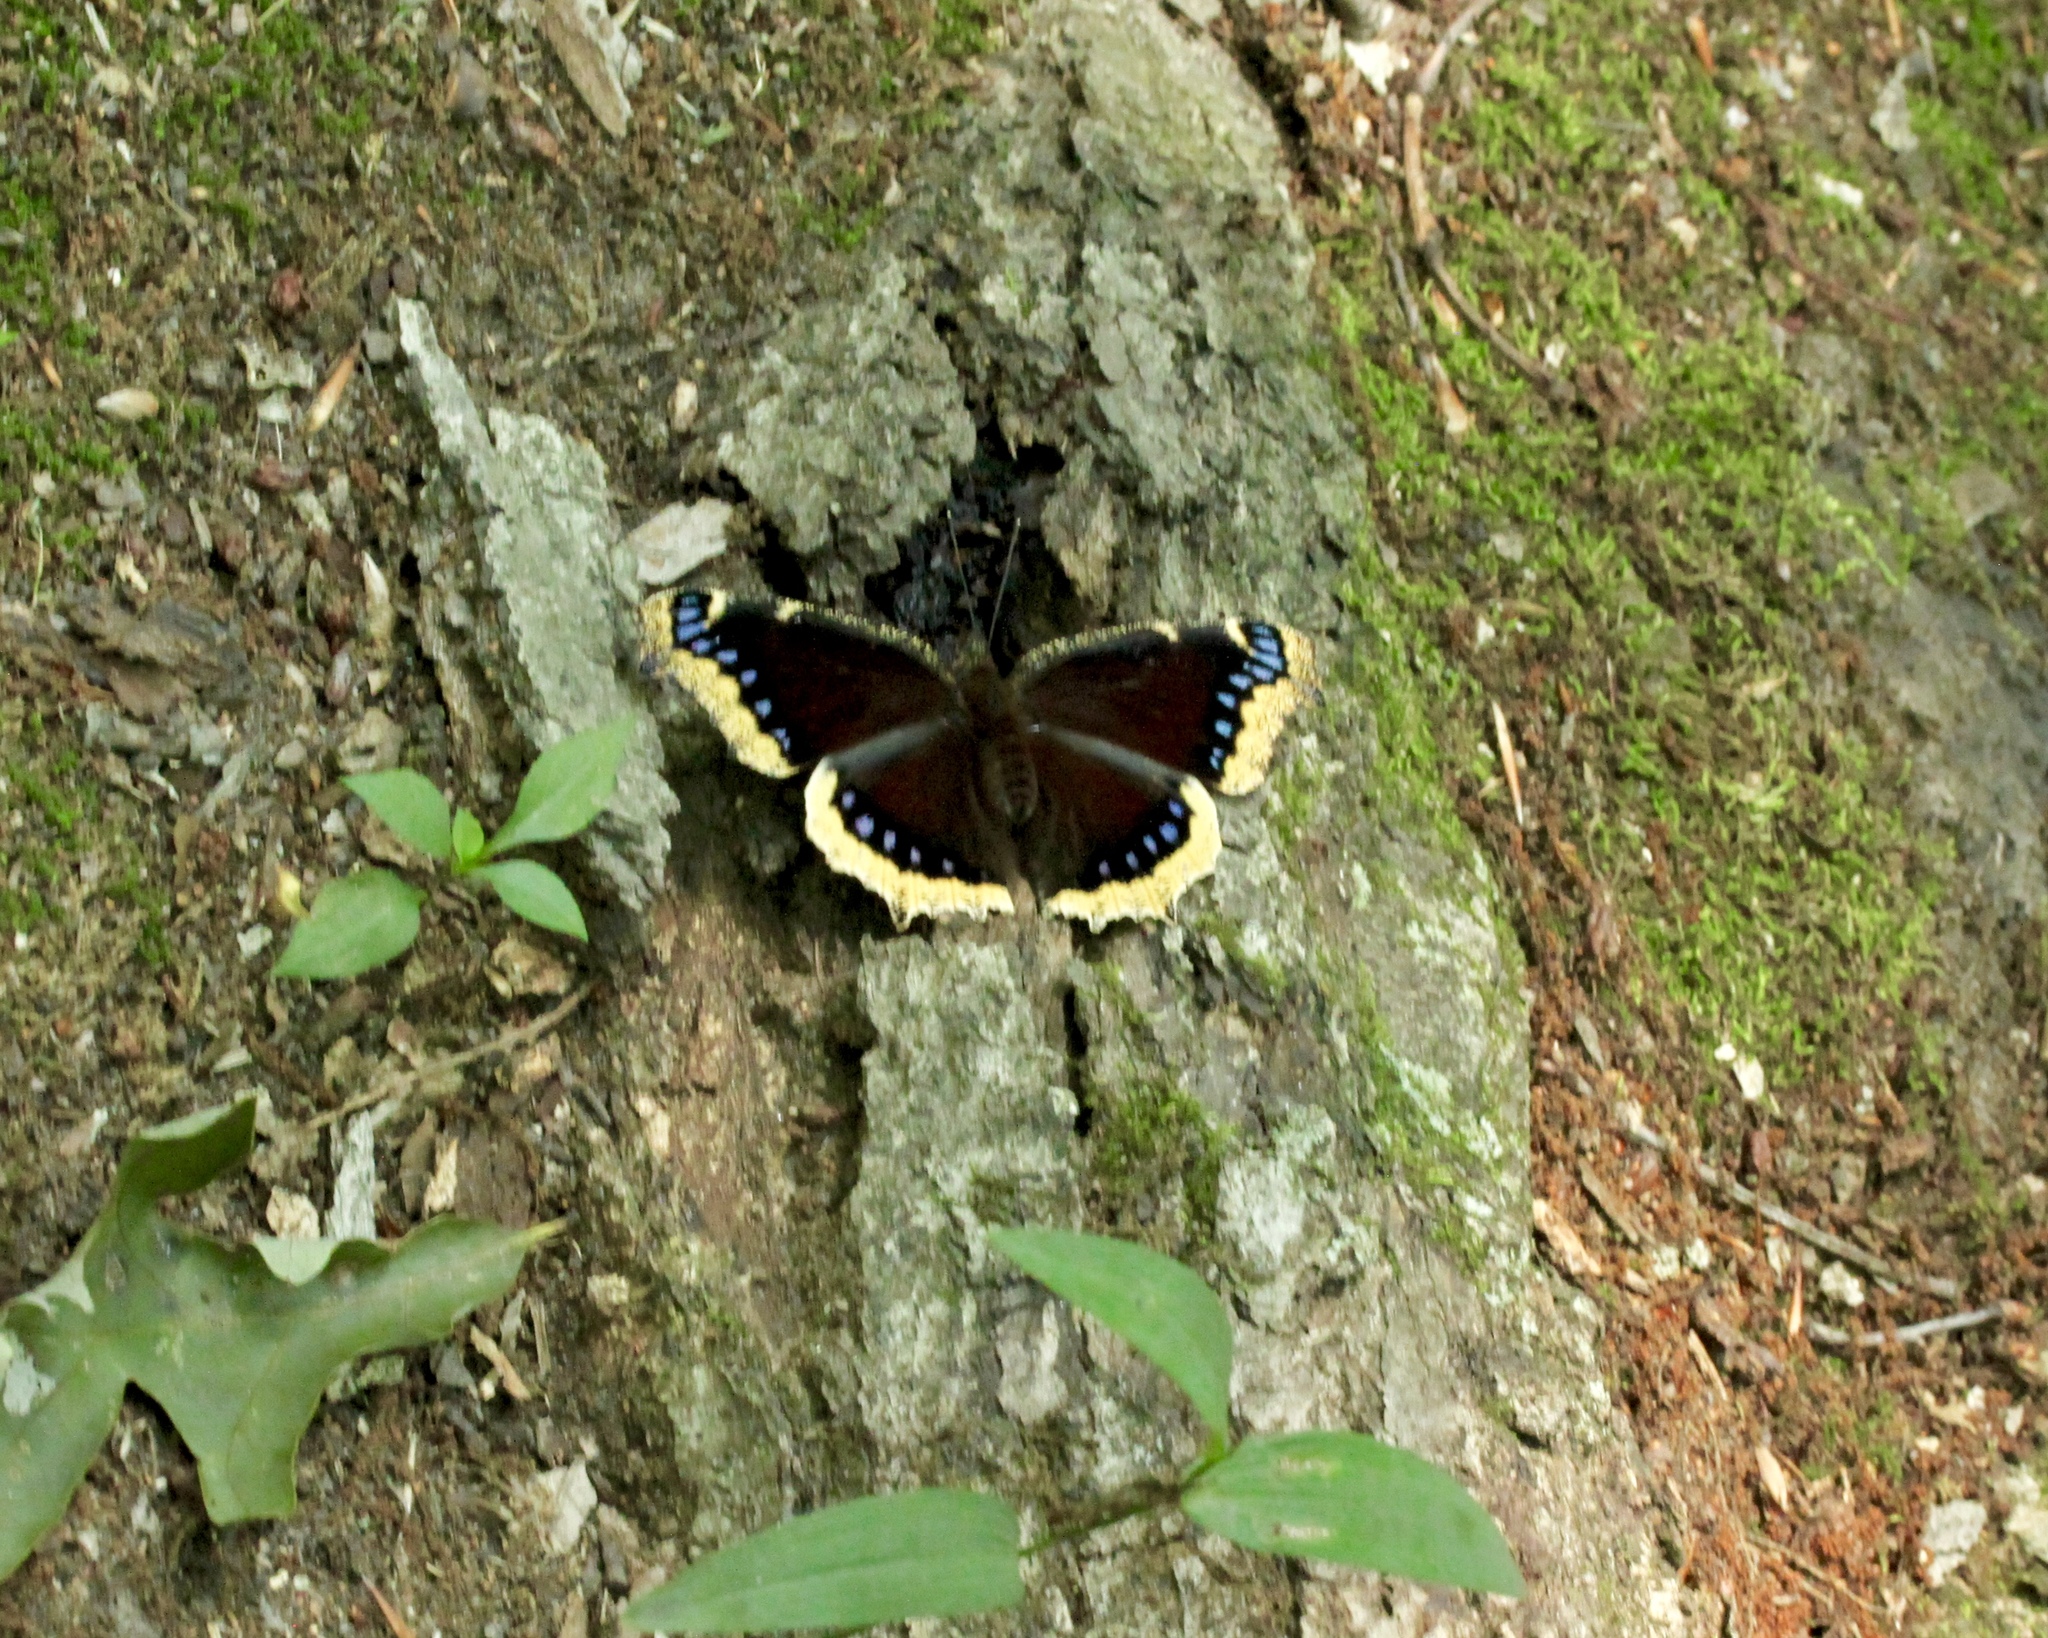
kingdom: Animalia
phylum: Arthropoda
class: Insecta
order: Lepidoptera
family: Nymphalidae
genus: Nymphalis
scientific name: Nymphalis antiopa
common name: Camberwell beauty
